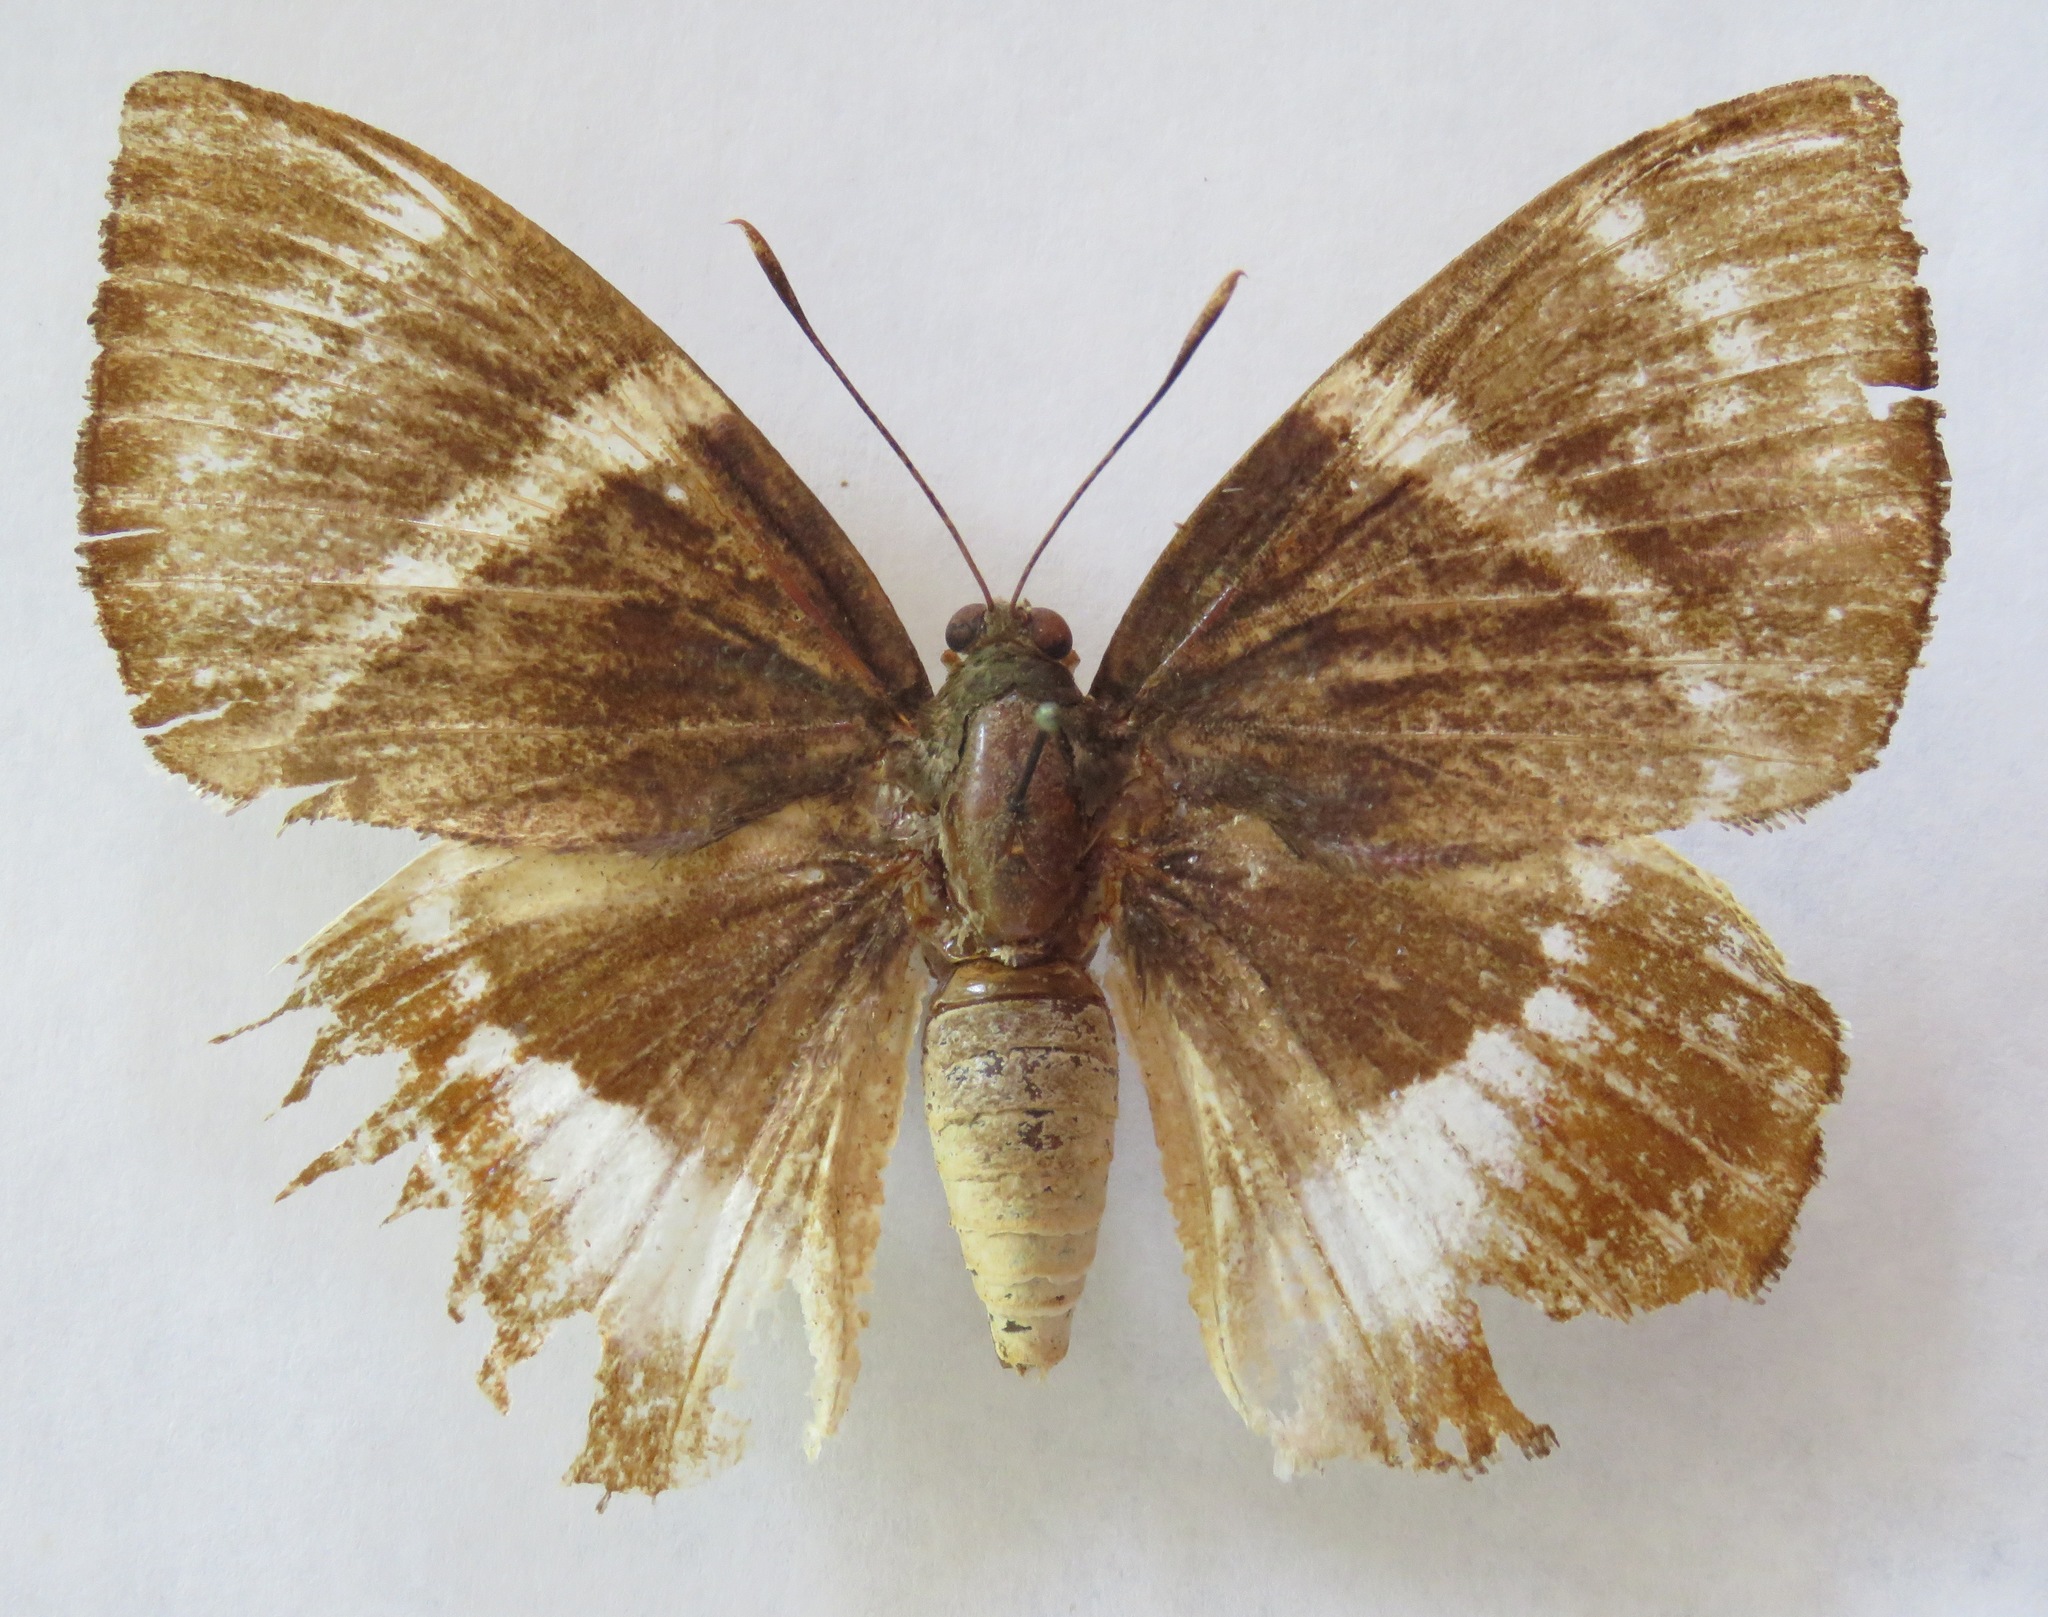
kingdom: Animalia
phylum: Arthropoda
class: Insecta
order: Lepidoptera
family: Castniidae
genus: Castniomera
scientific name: Castniomera atymnius
